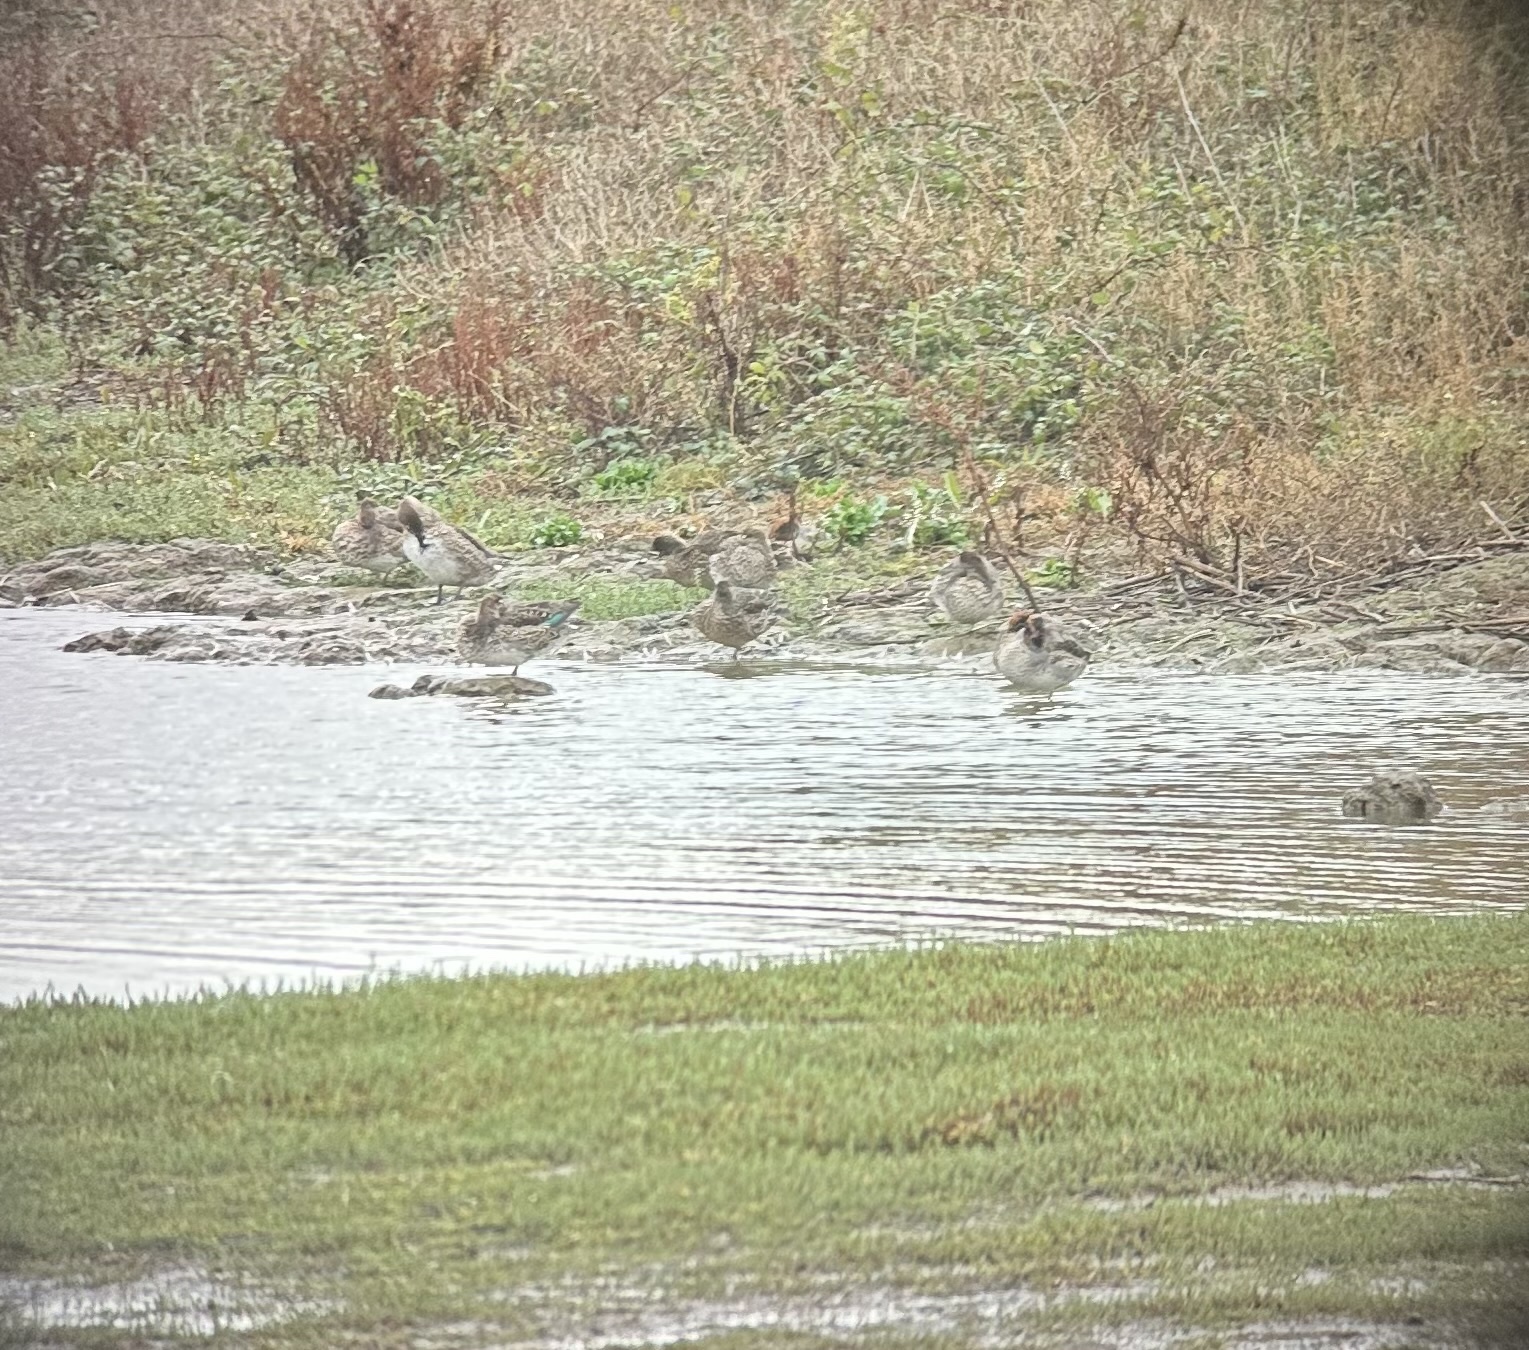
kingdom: Animalia
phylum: Chordata
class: Aves
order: Anseriformes
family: Anatidae
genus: Anas
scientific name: Anas crecca
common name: Eurasian teal
